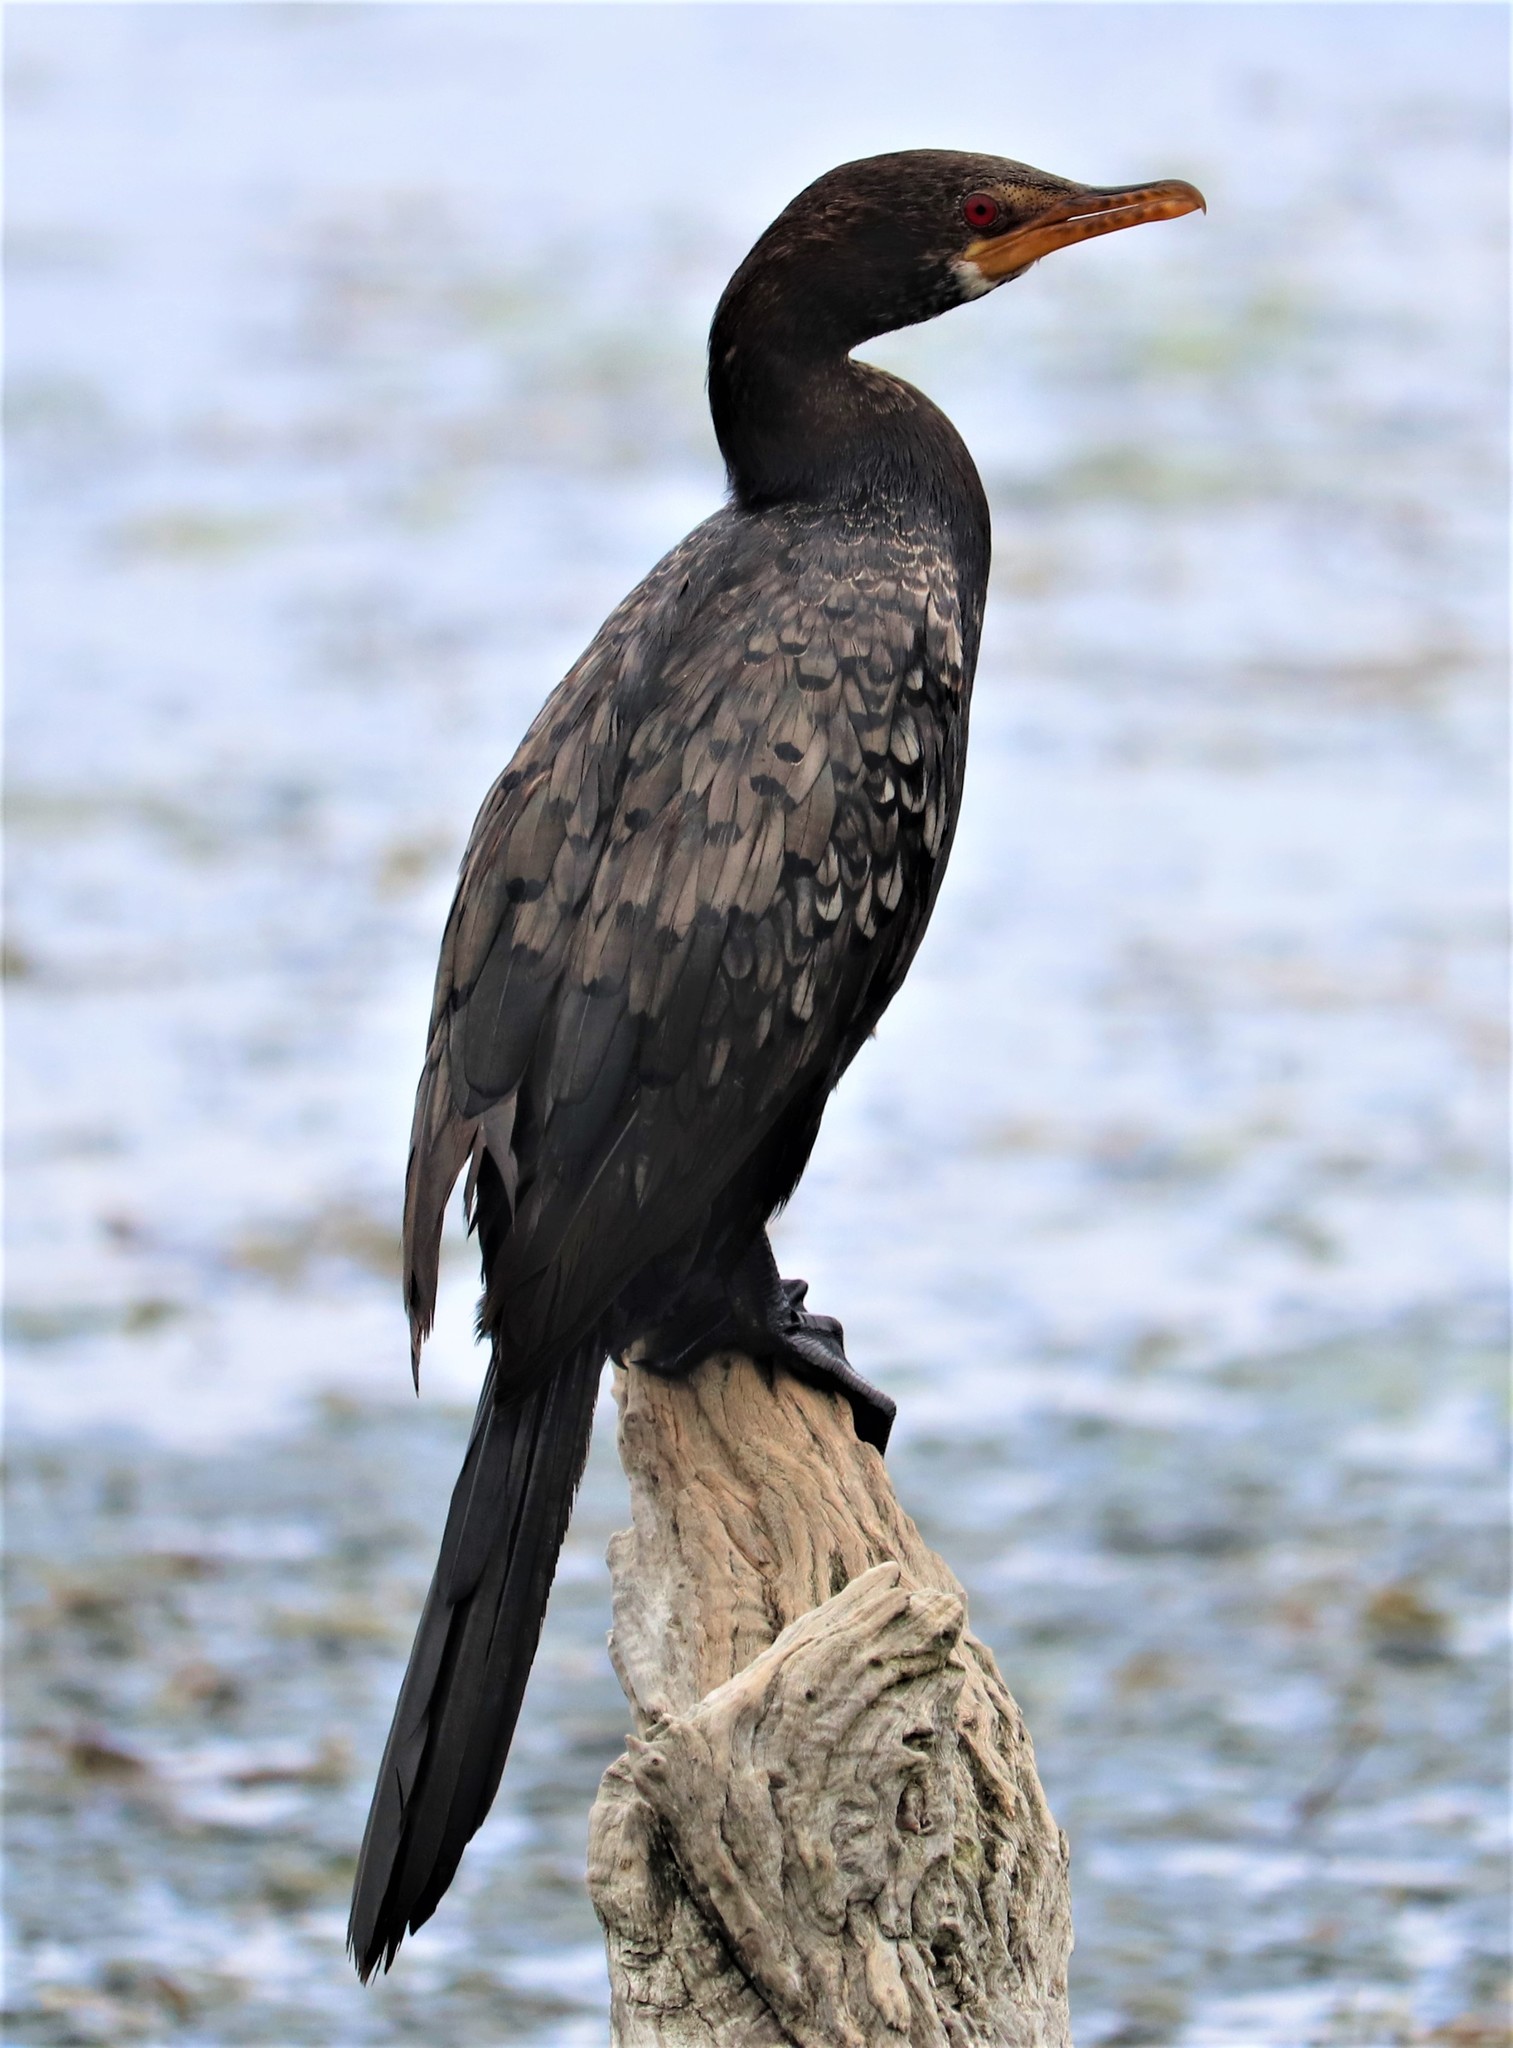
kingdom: Animalia
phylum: Chordata
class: Aves
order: Suliformes
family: Phalacrocoracidae
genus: Microcarbo
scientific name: Microcarbo africanus
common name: Long-tailed cormorant
